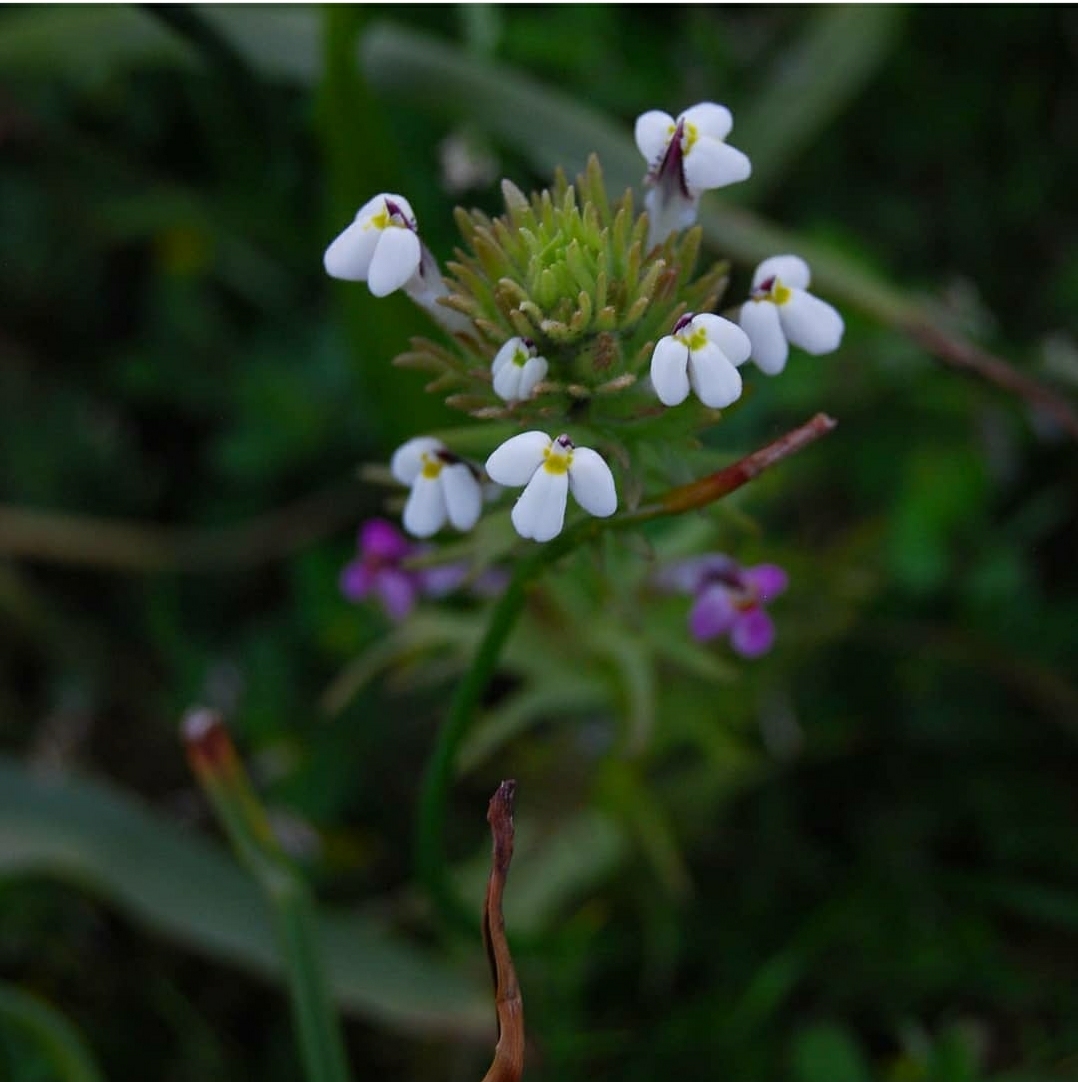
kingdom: Plantae
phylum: Tracheophyta
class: Magnoliopsida
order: Lamiales
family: Orobanchaceae
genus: Triphysaria
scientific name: Triphysaria versicolor
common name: Bearded false owl-clover
